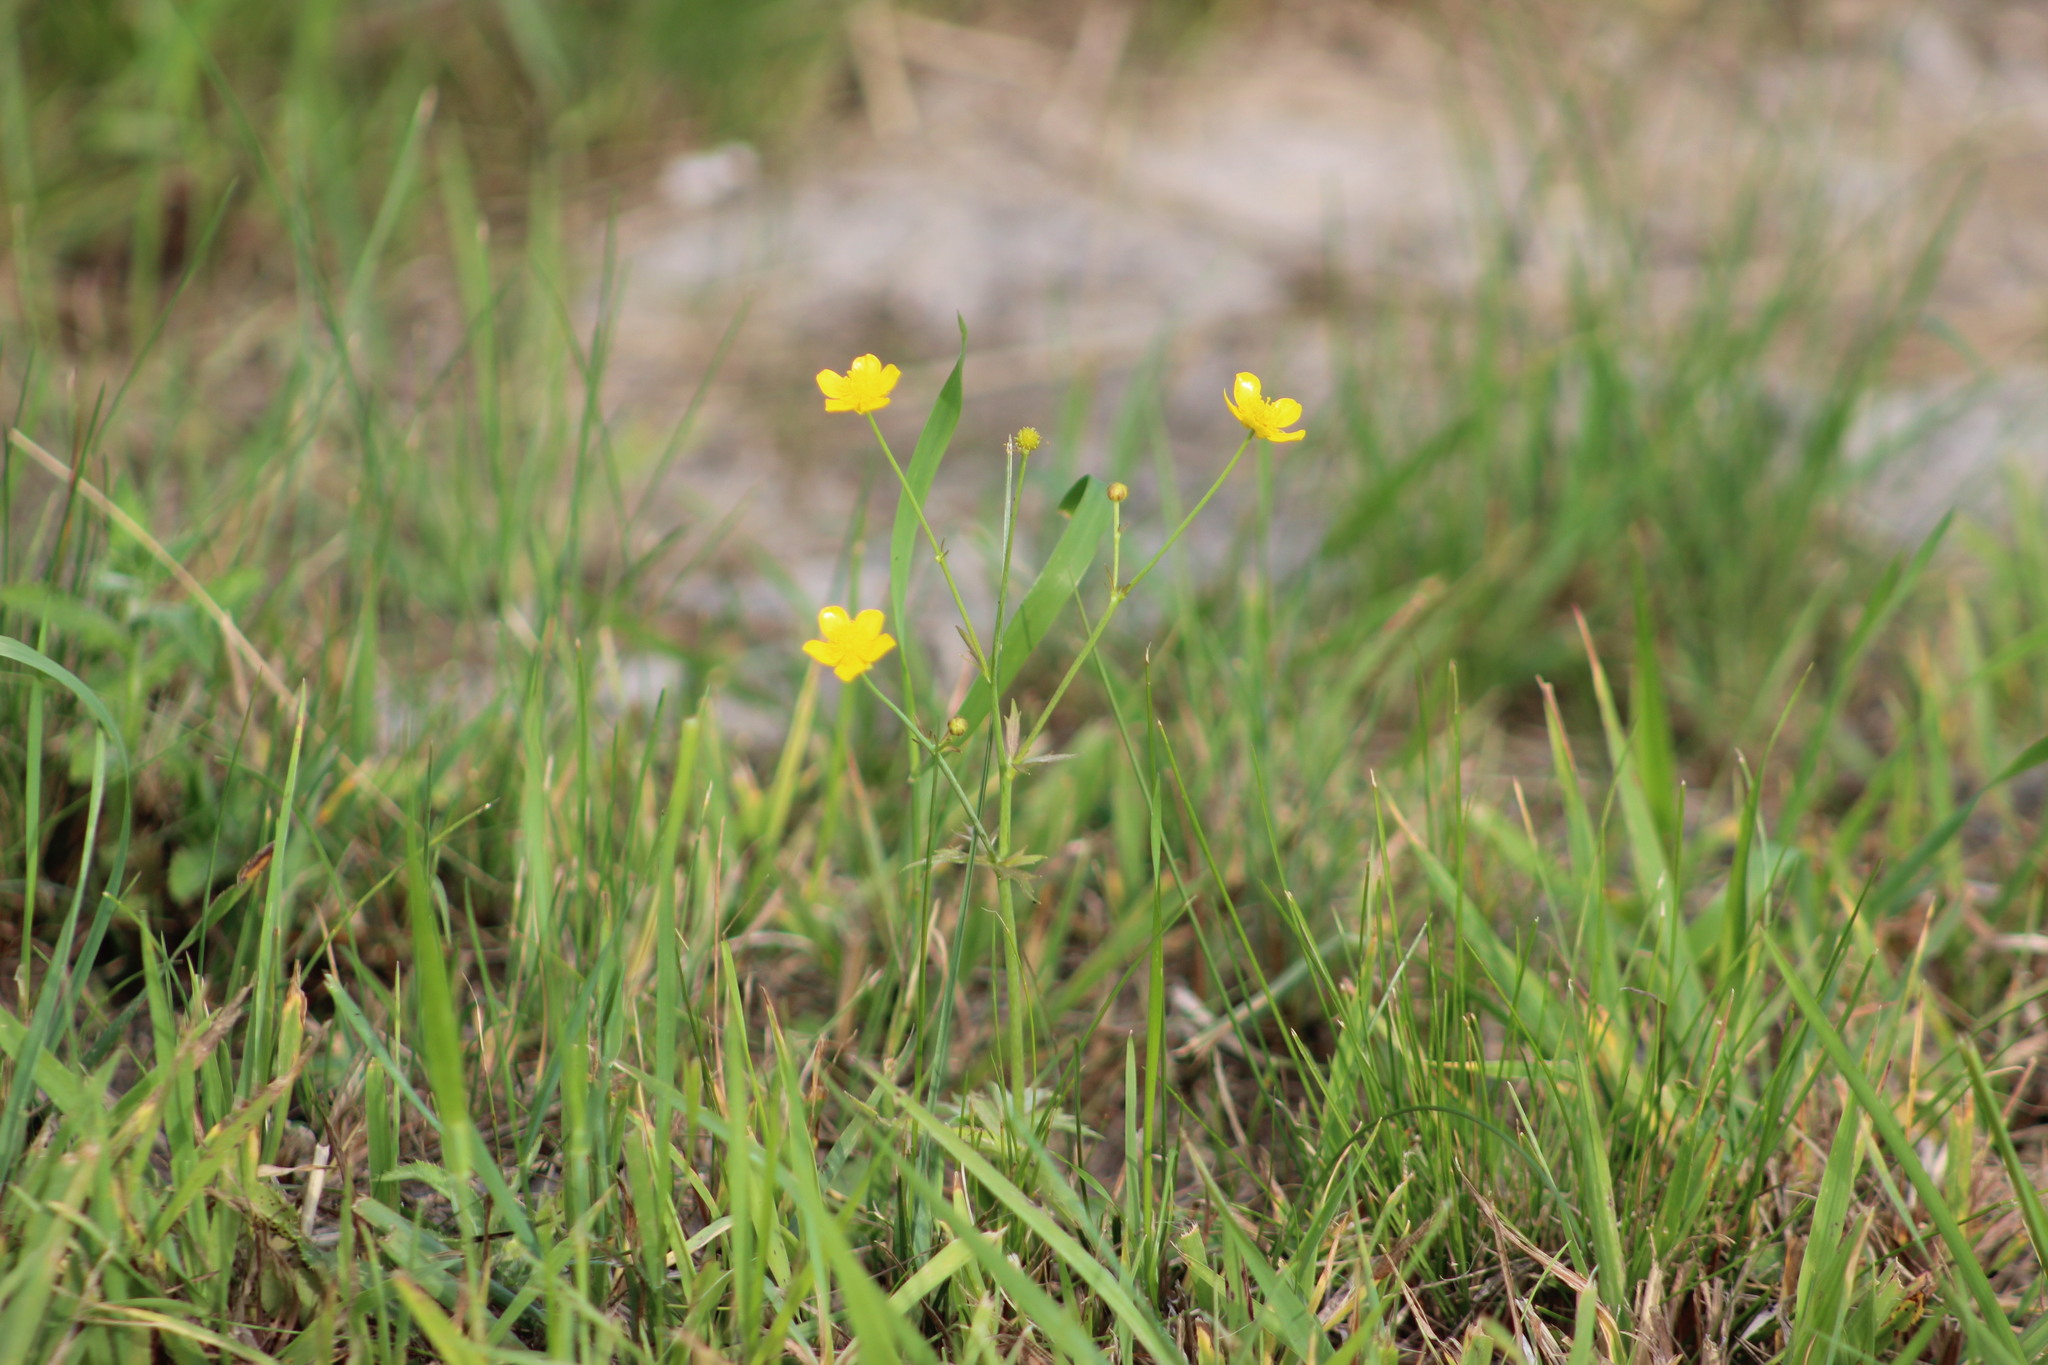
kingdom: Plantae
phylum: Tracheophyta
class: Magnoliopsida
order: Ranunculales
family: Ranunculaceae
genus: Ranunculus
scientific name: Ranunculus acris
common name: Meadow buttercup
